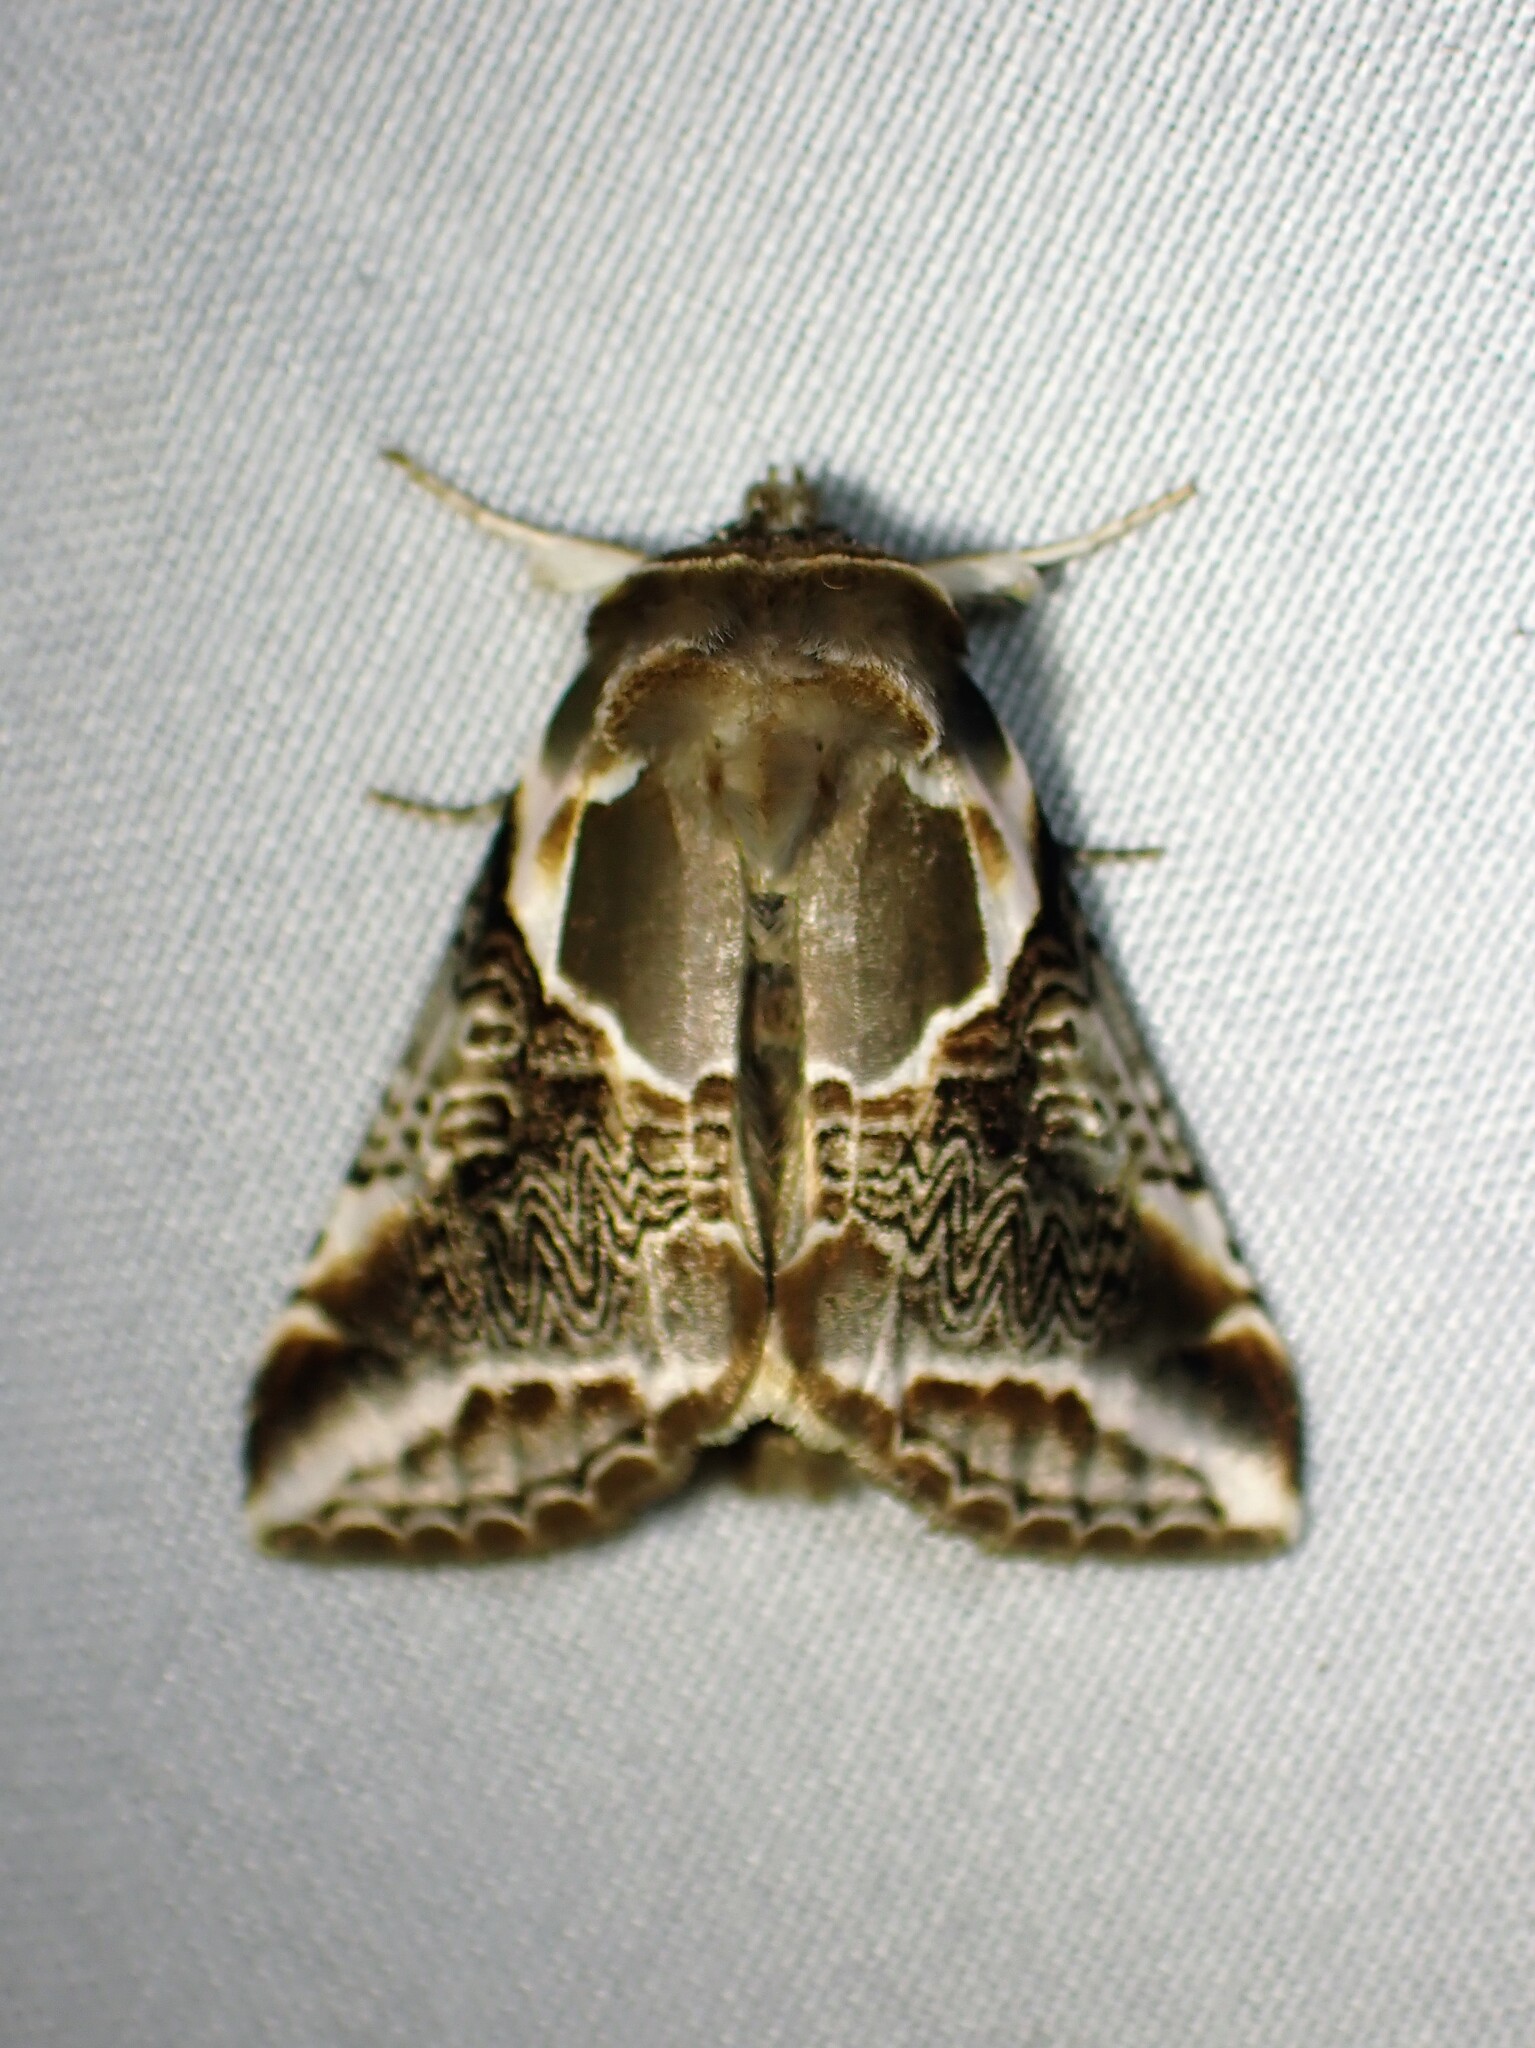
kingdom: Animalia
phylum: Arthropoda
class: Insecta
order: Lepidoptera
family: Drepanidae
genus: Habrosyne
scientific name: Habrosyne scripta
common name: Lettered habrosyne moth
